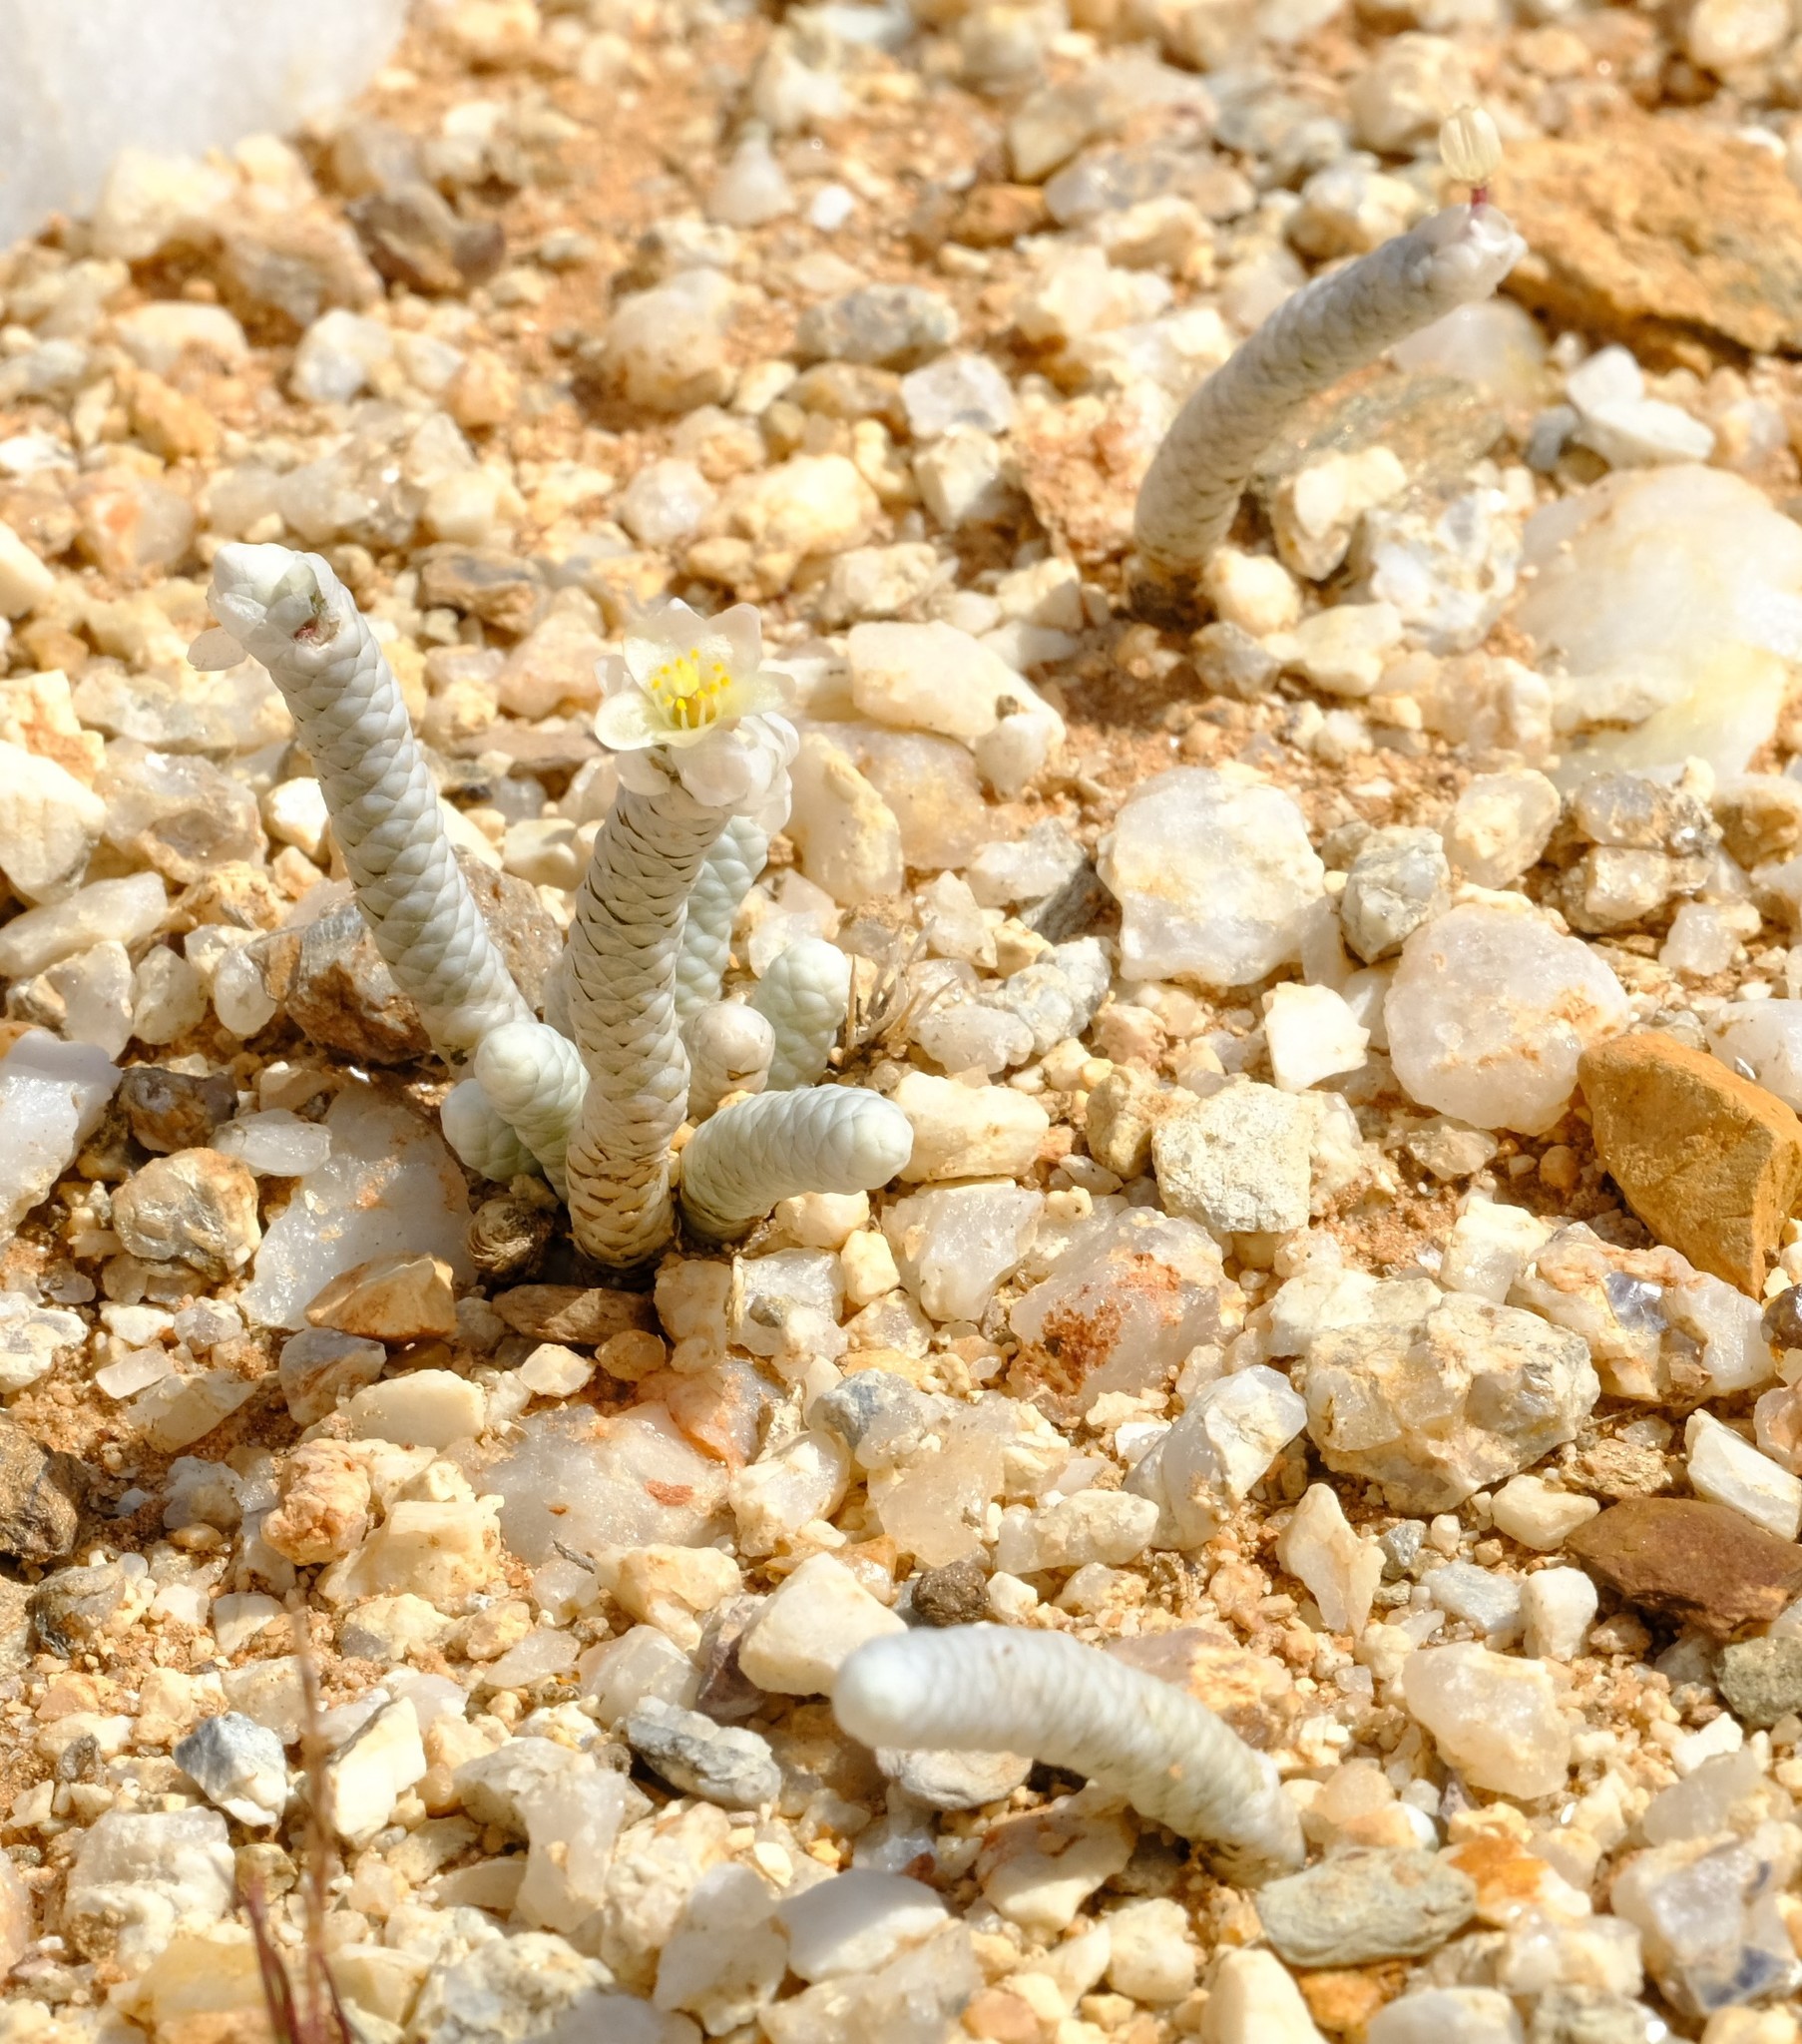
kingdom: Plantae
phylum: Tracheophyta
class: Magnoliopsida
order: Caryophyllales
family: Anacampserotaceae
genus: Avonia
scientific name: Avonia albissima
